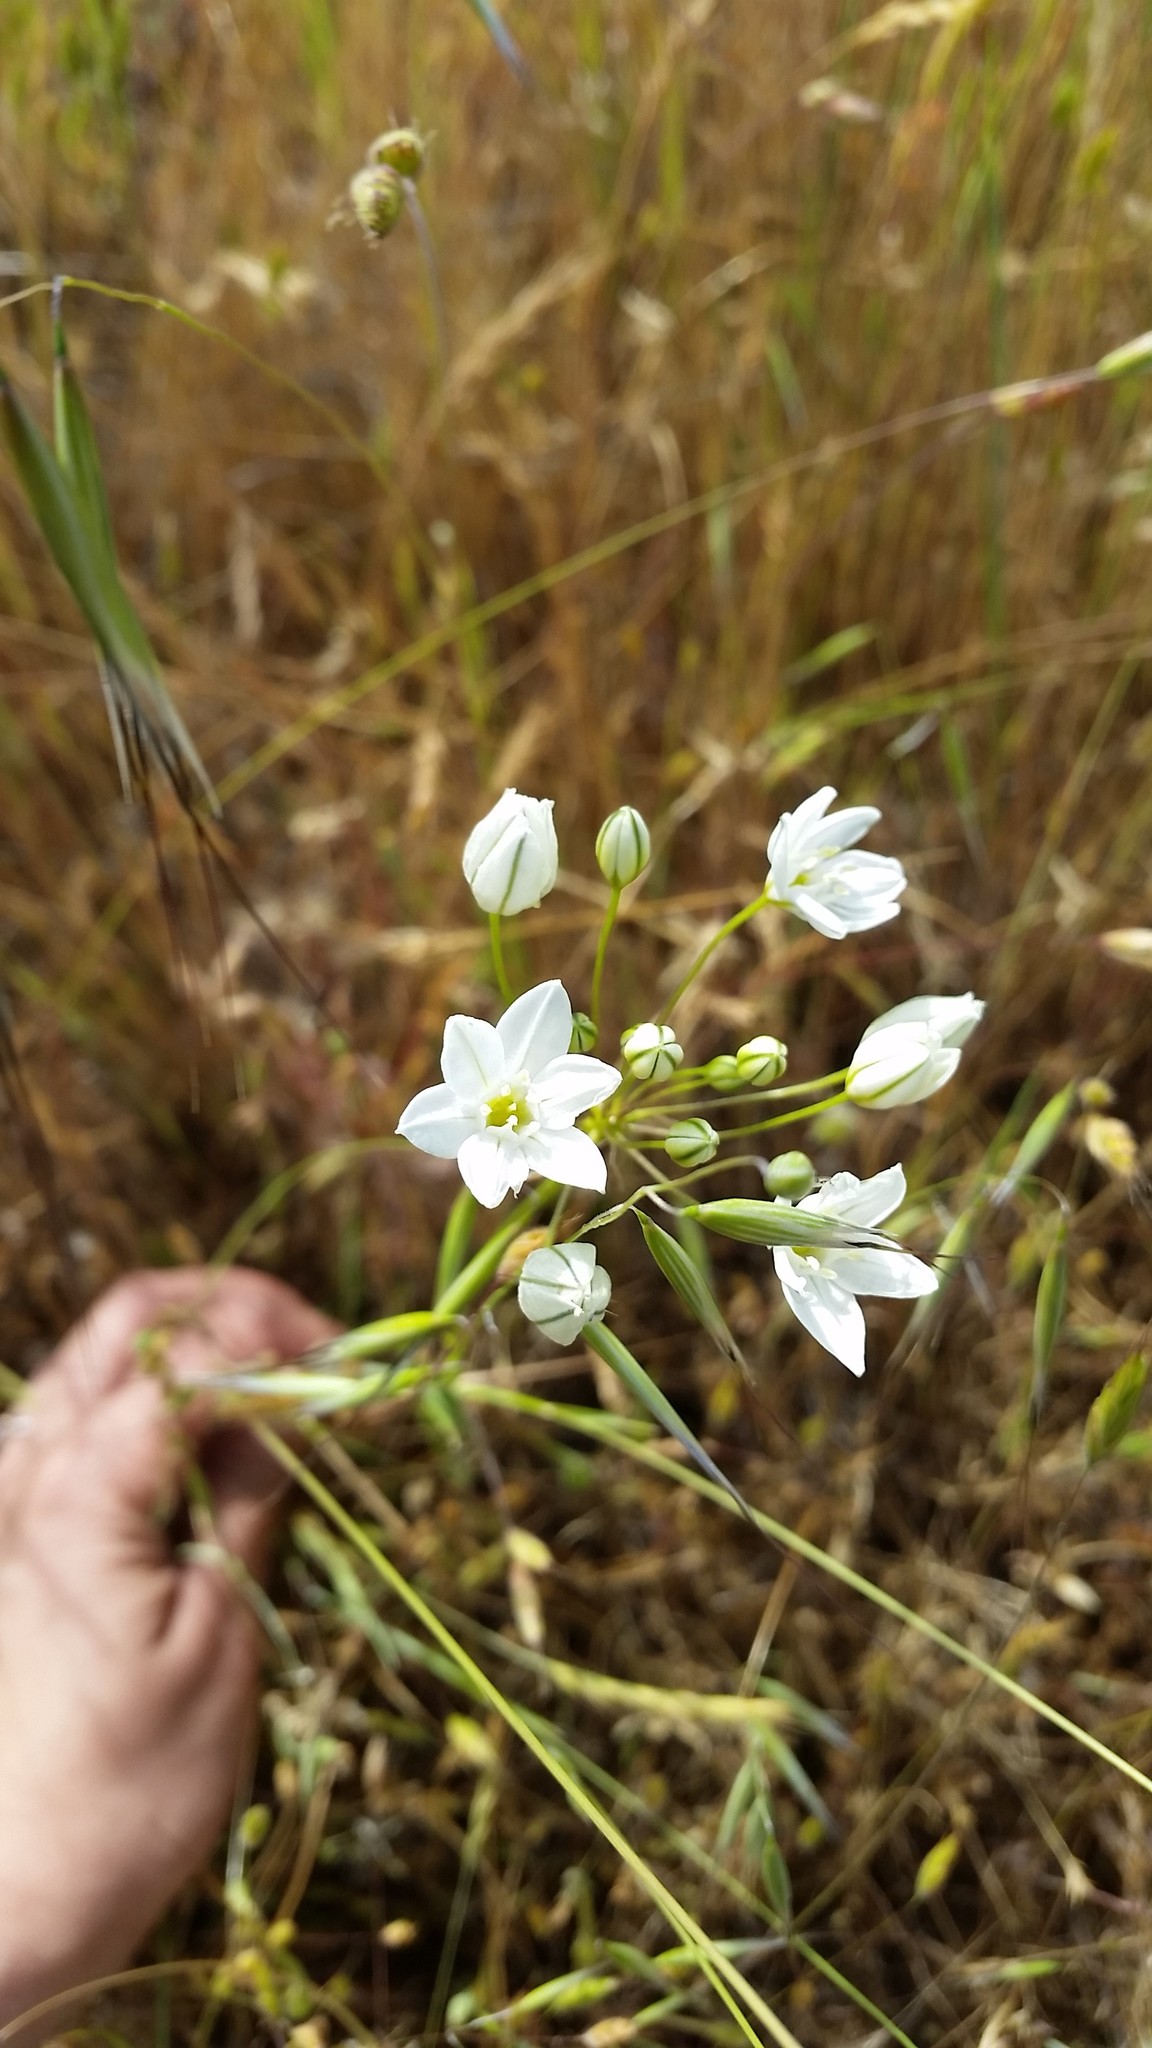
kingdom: Plantae
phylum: Tracheophyta
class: Liliopsida
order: Asparagales
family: Asparagaceae
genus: Triteleia
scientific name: Triteleia hyacinthina
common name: White brodiaea
